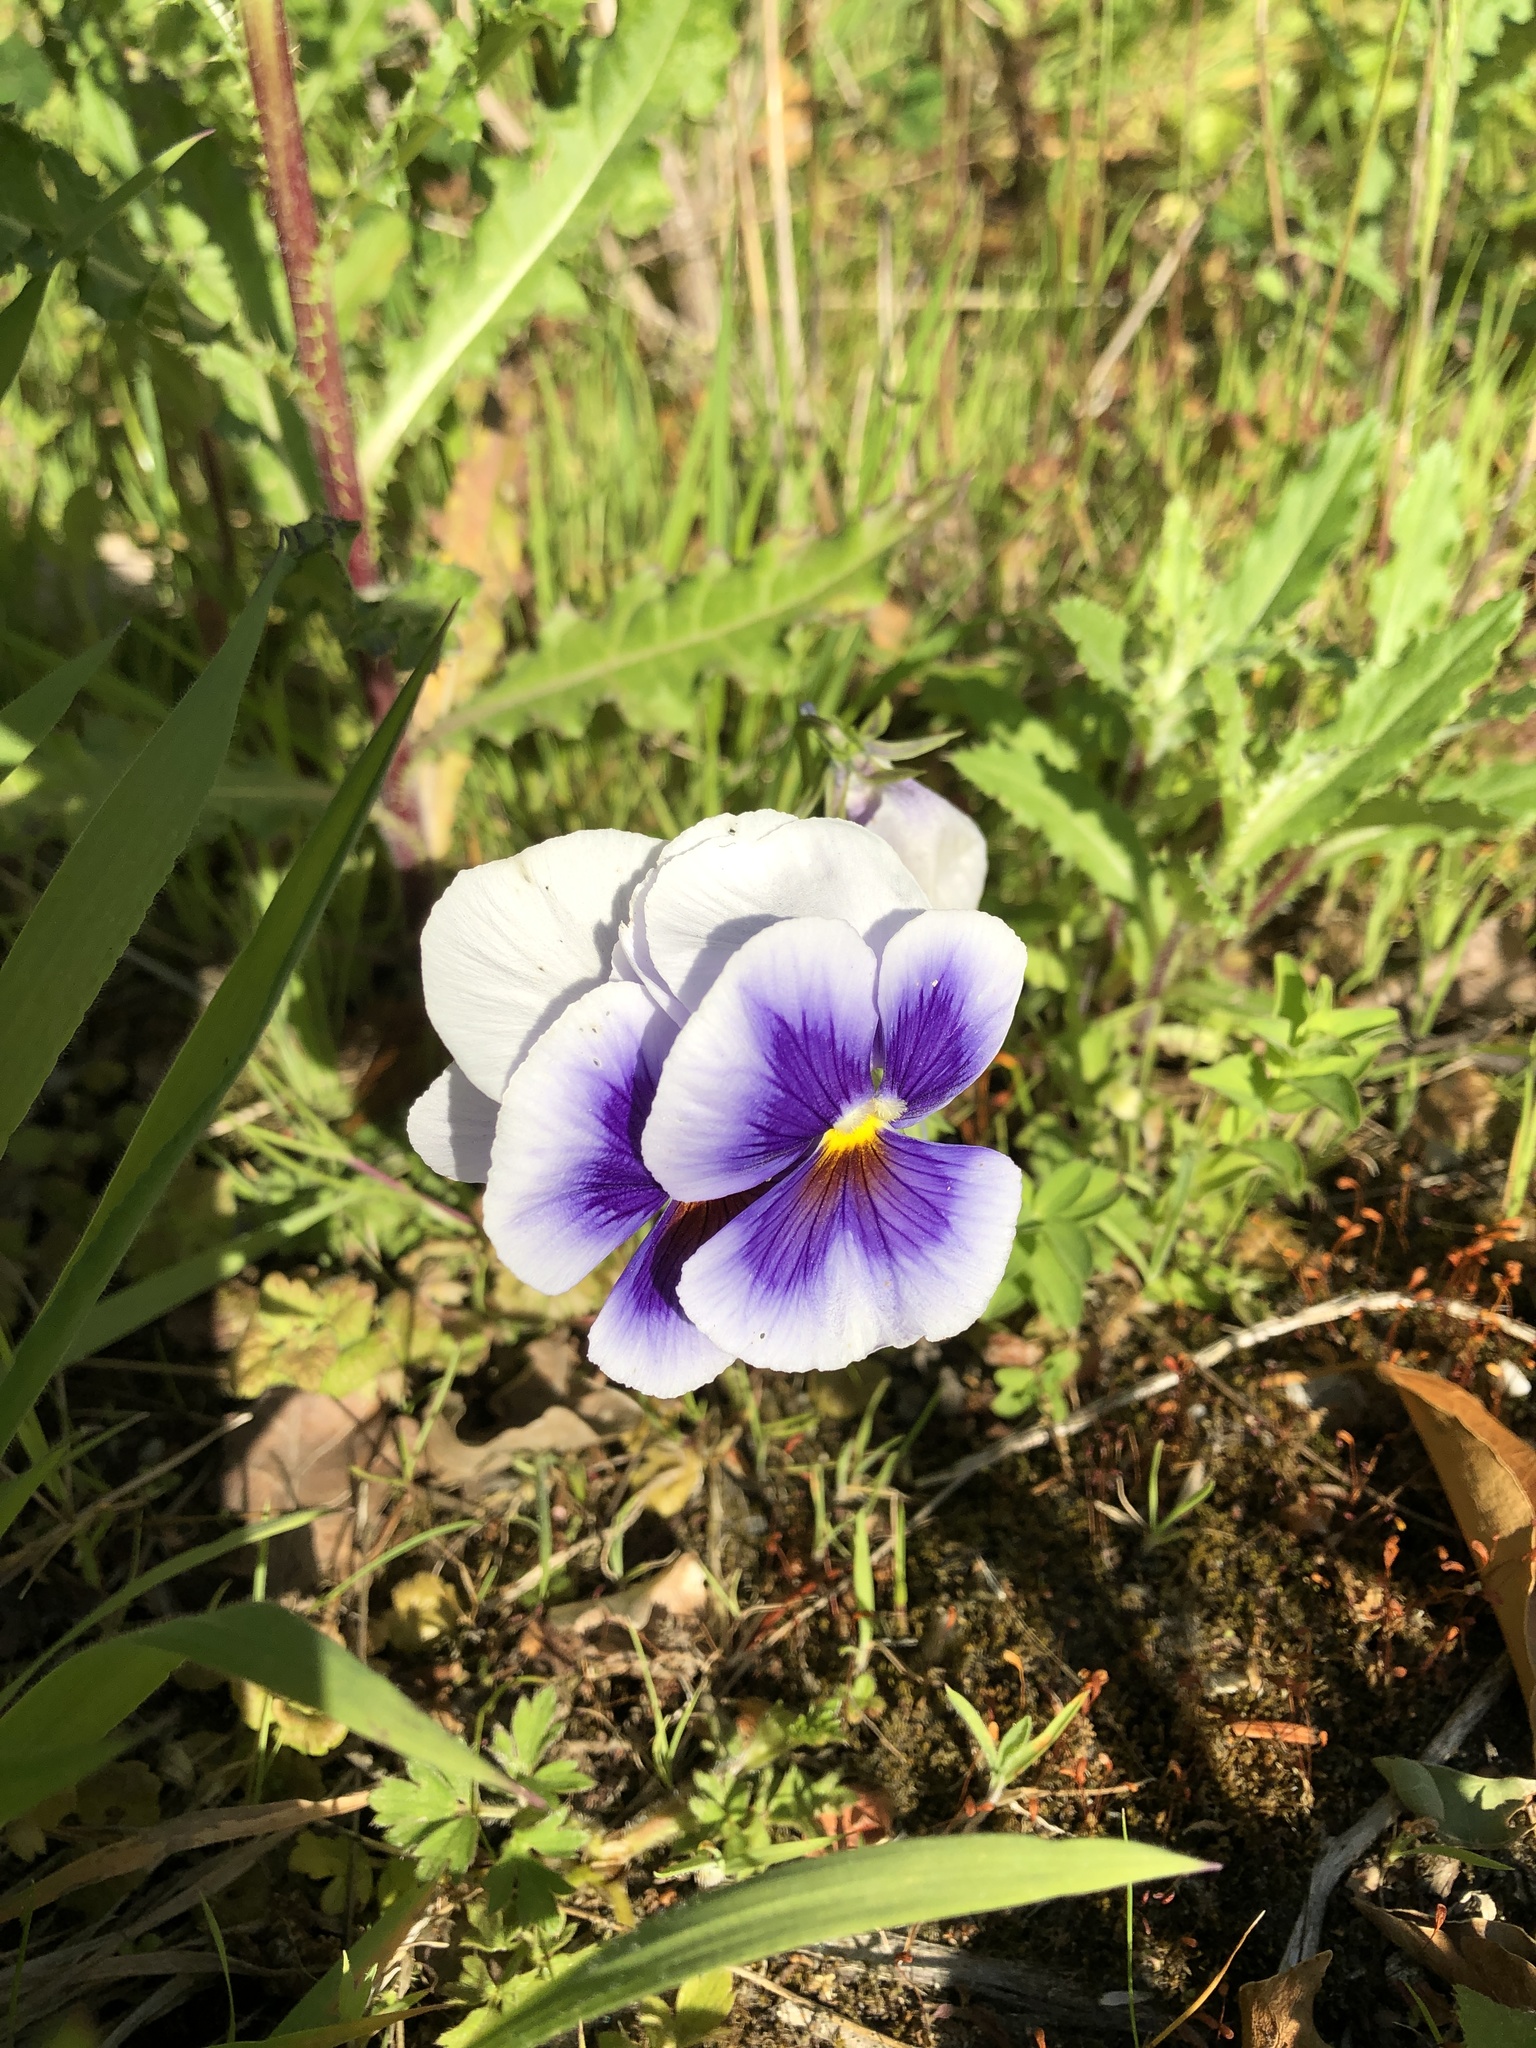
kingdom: Plantae
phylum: Tracheophyta
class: Magnoliopsida
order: Malpighiales
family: Violaceae
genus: Viola
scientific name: Viola wittrockiana
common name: Garden pansy
